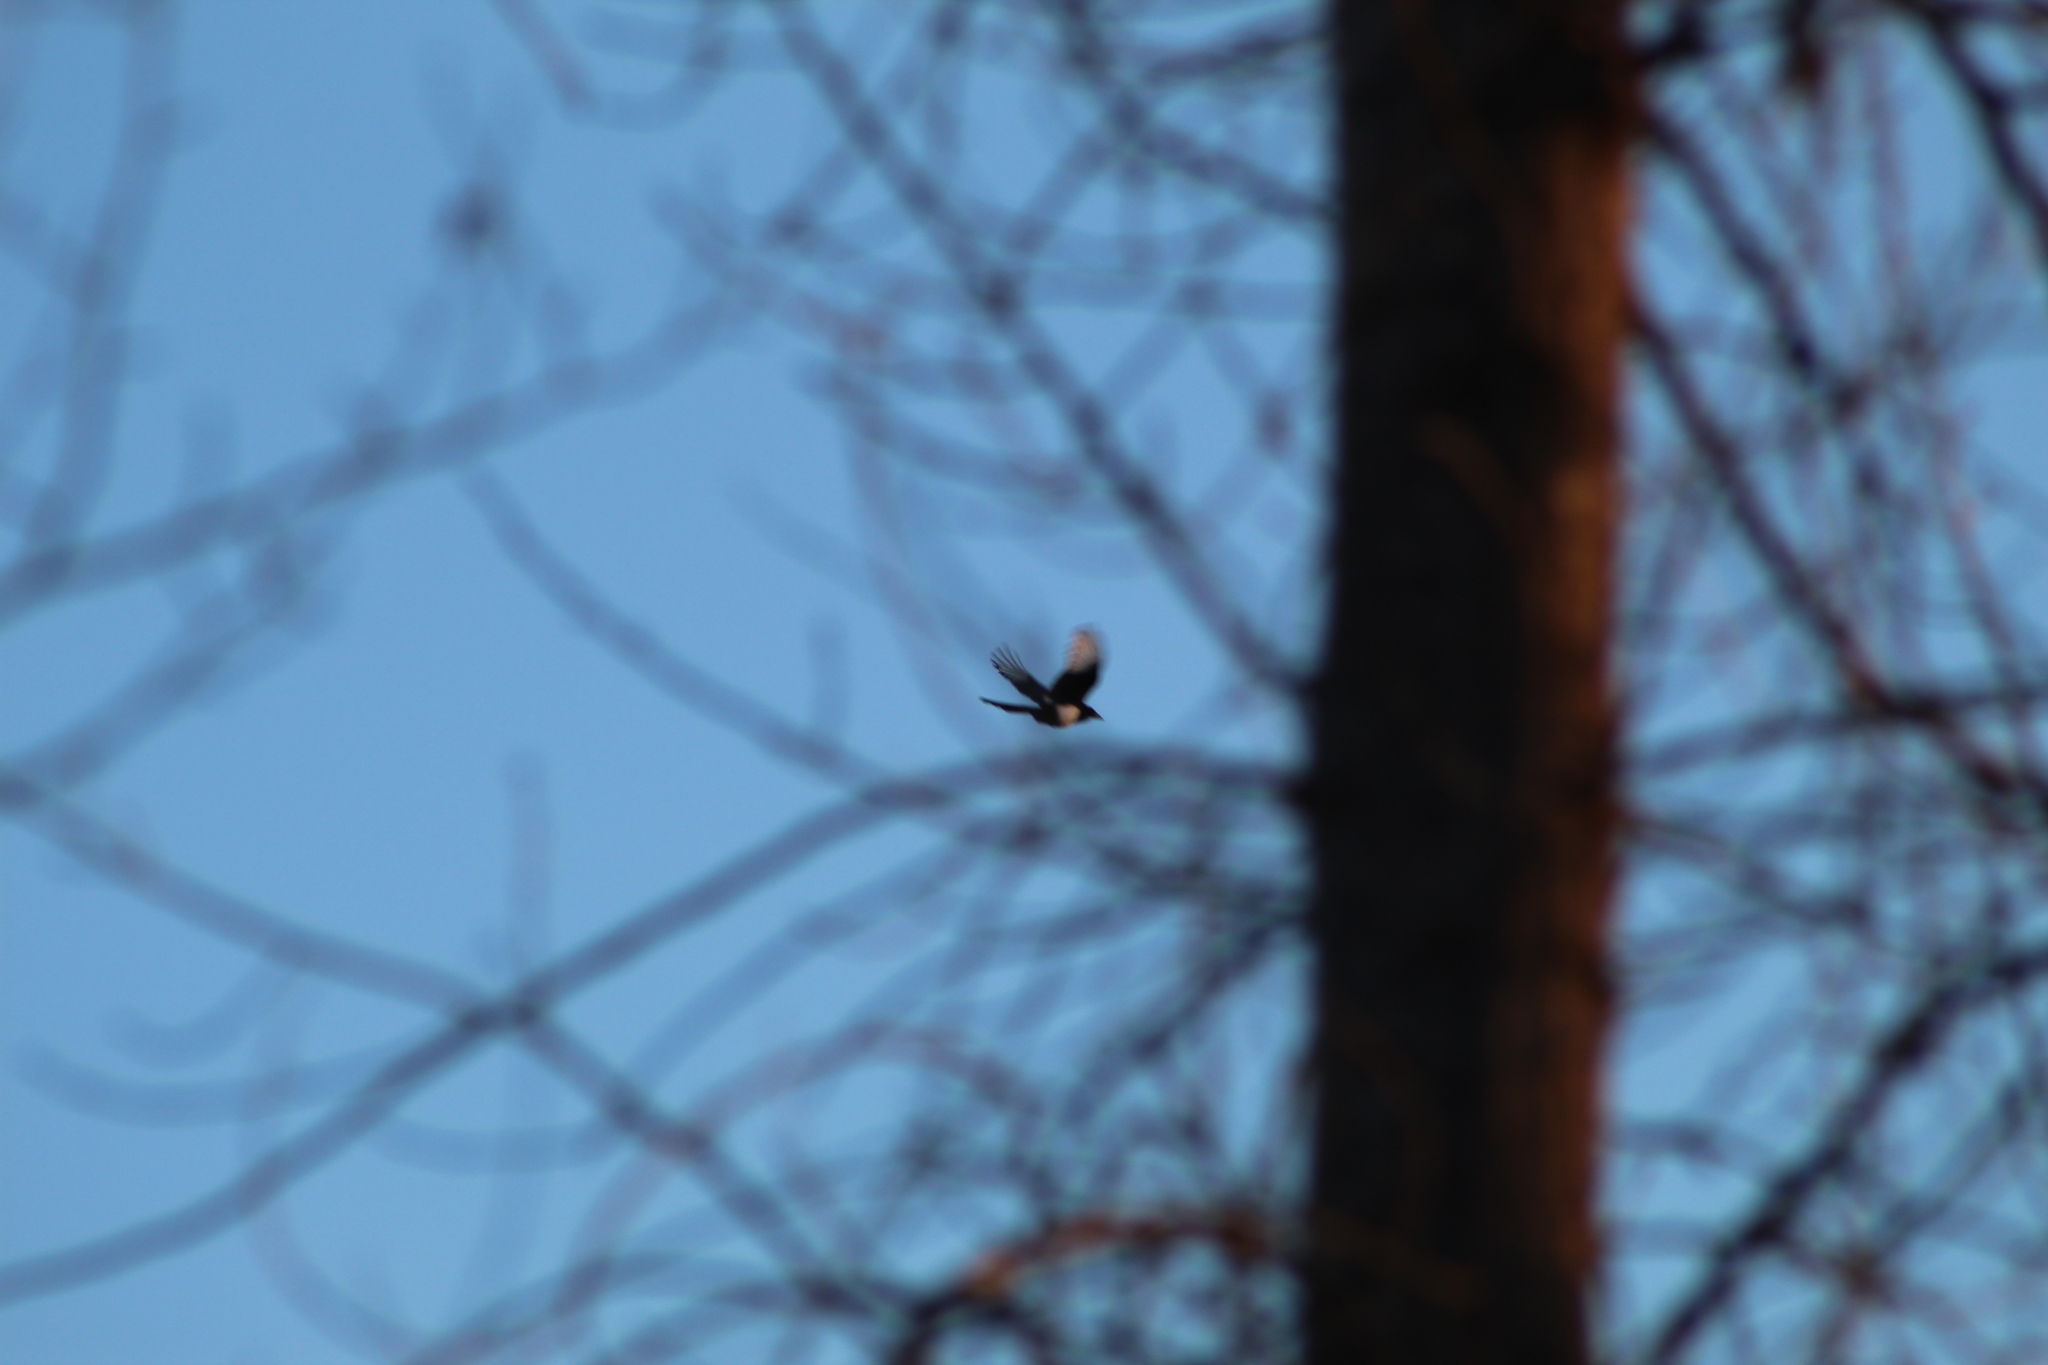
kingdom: Animalia
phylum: Chordata
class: Aves
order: Passeriformes
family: Corvidae
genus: Pica
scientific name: Pica hudsonia
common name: Black-billed magpie
